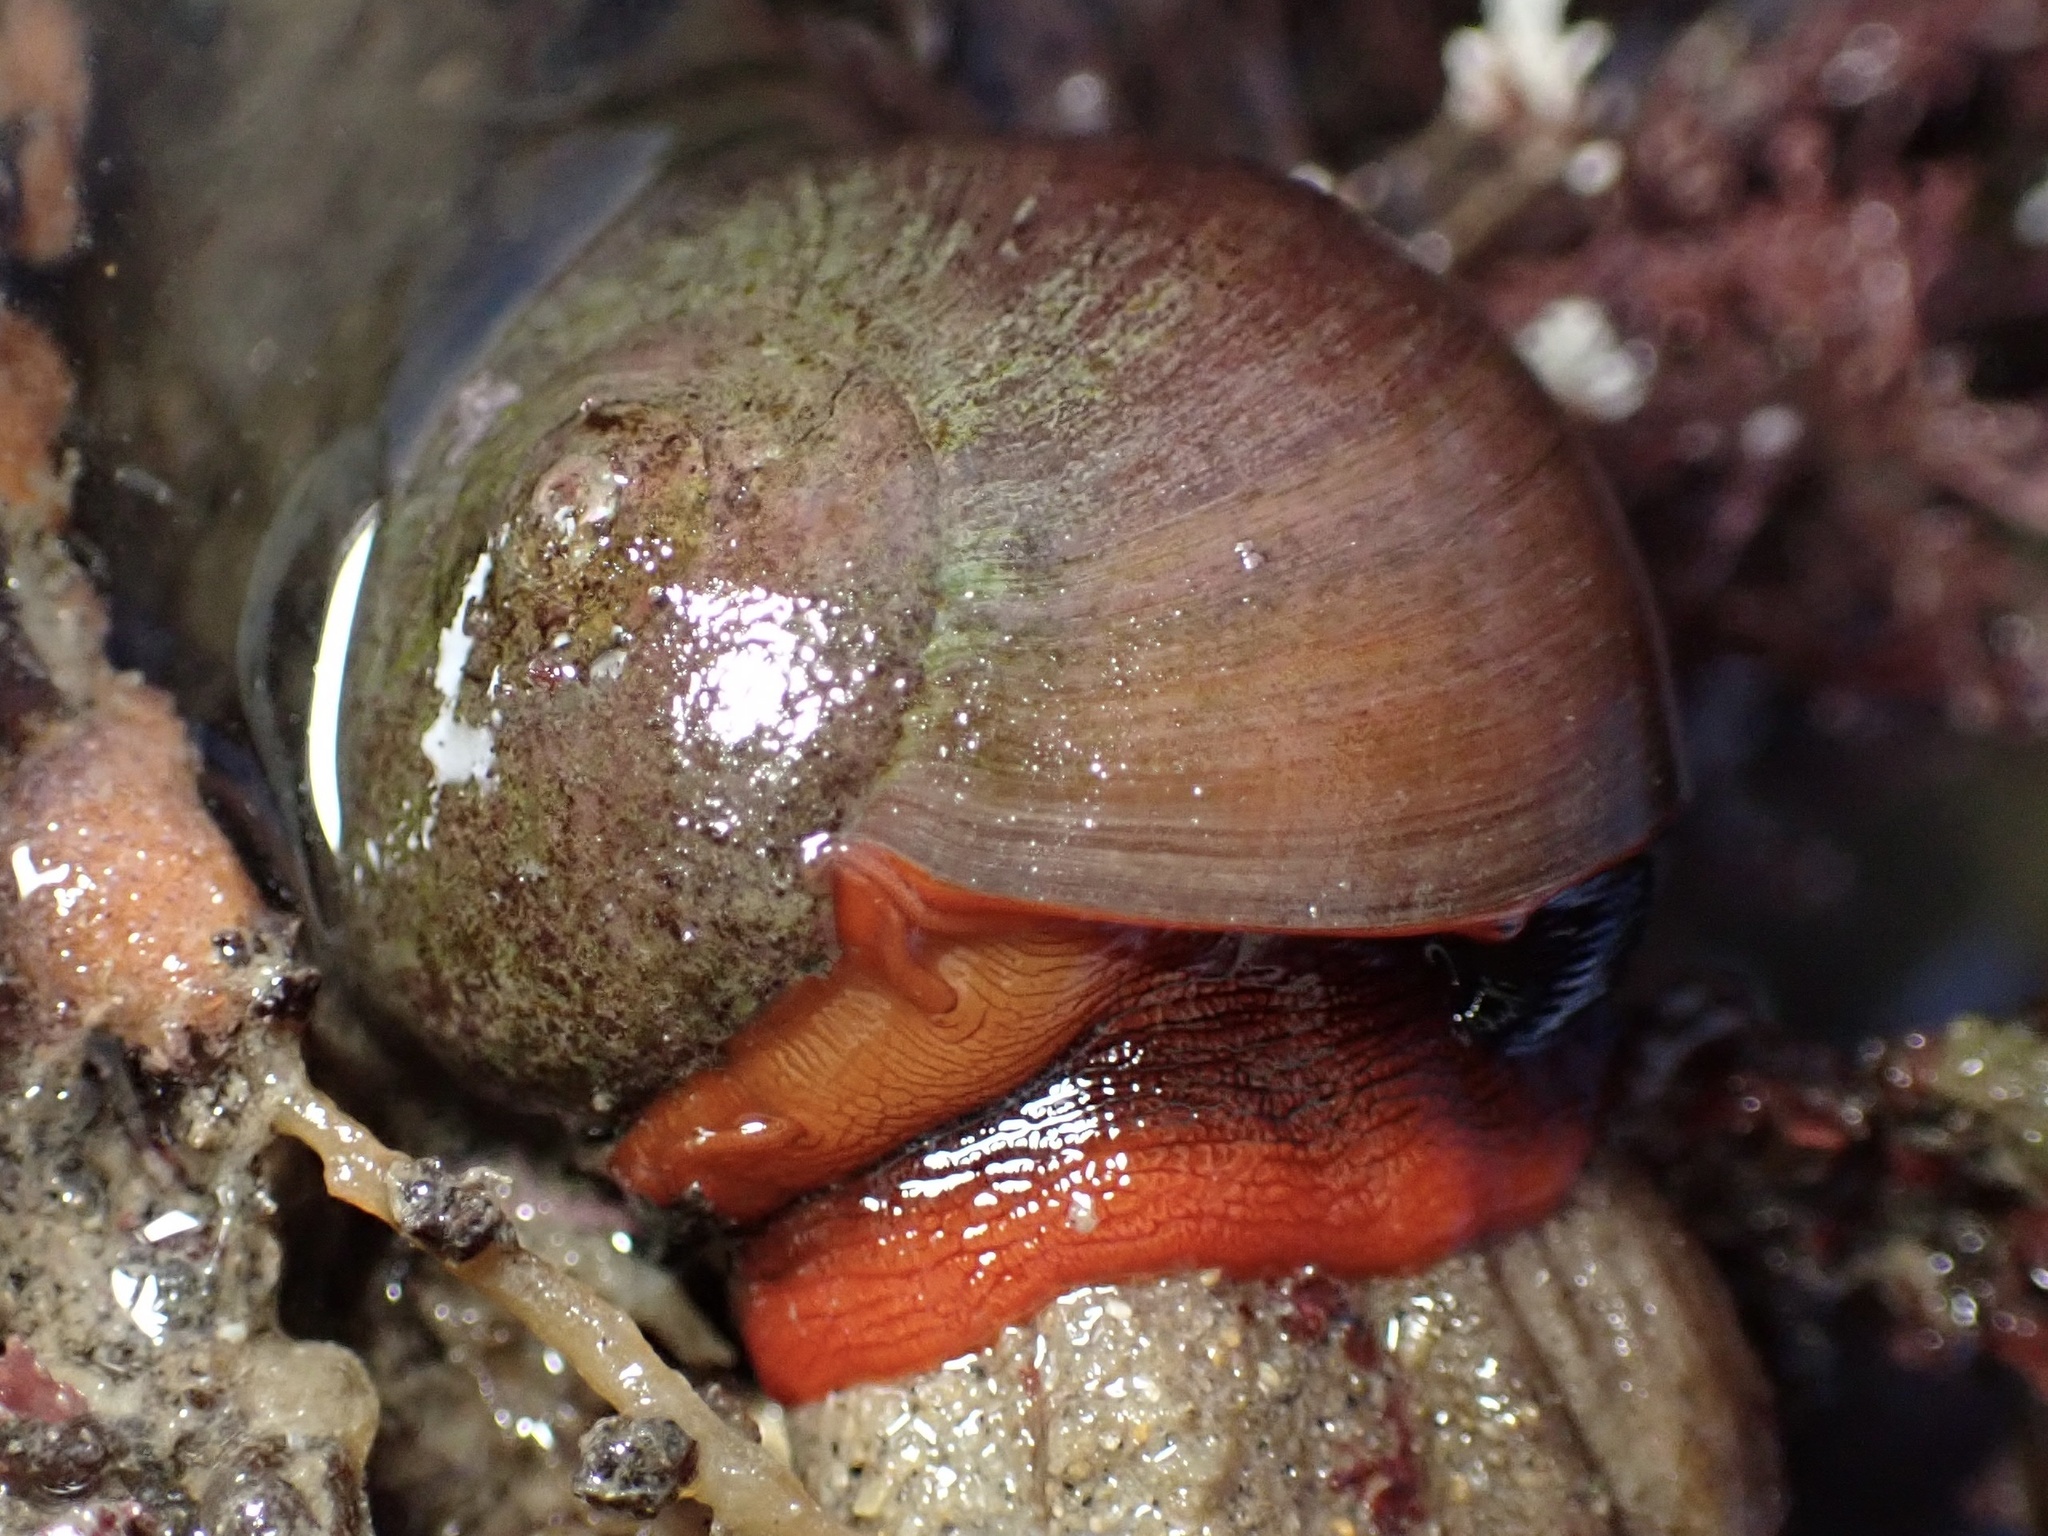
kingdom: Animalia
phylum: Mollusca
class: Gastropoda
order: Trochida
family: Tegulidae
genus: Norrisia
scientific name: Norrisia norrisii
